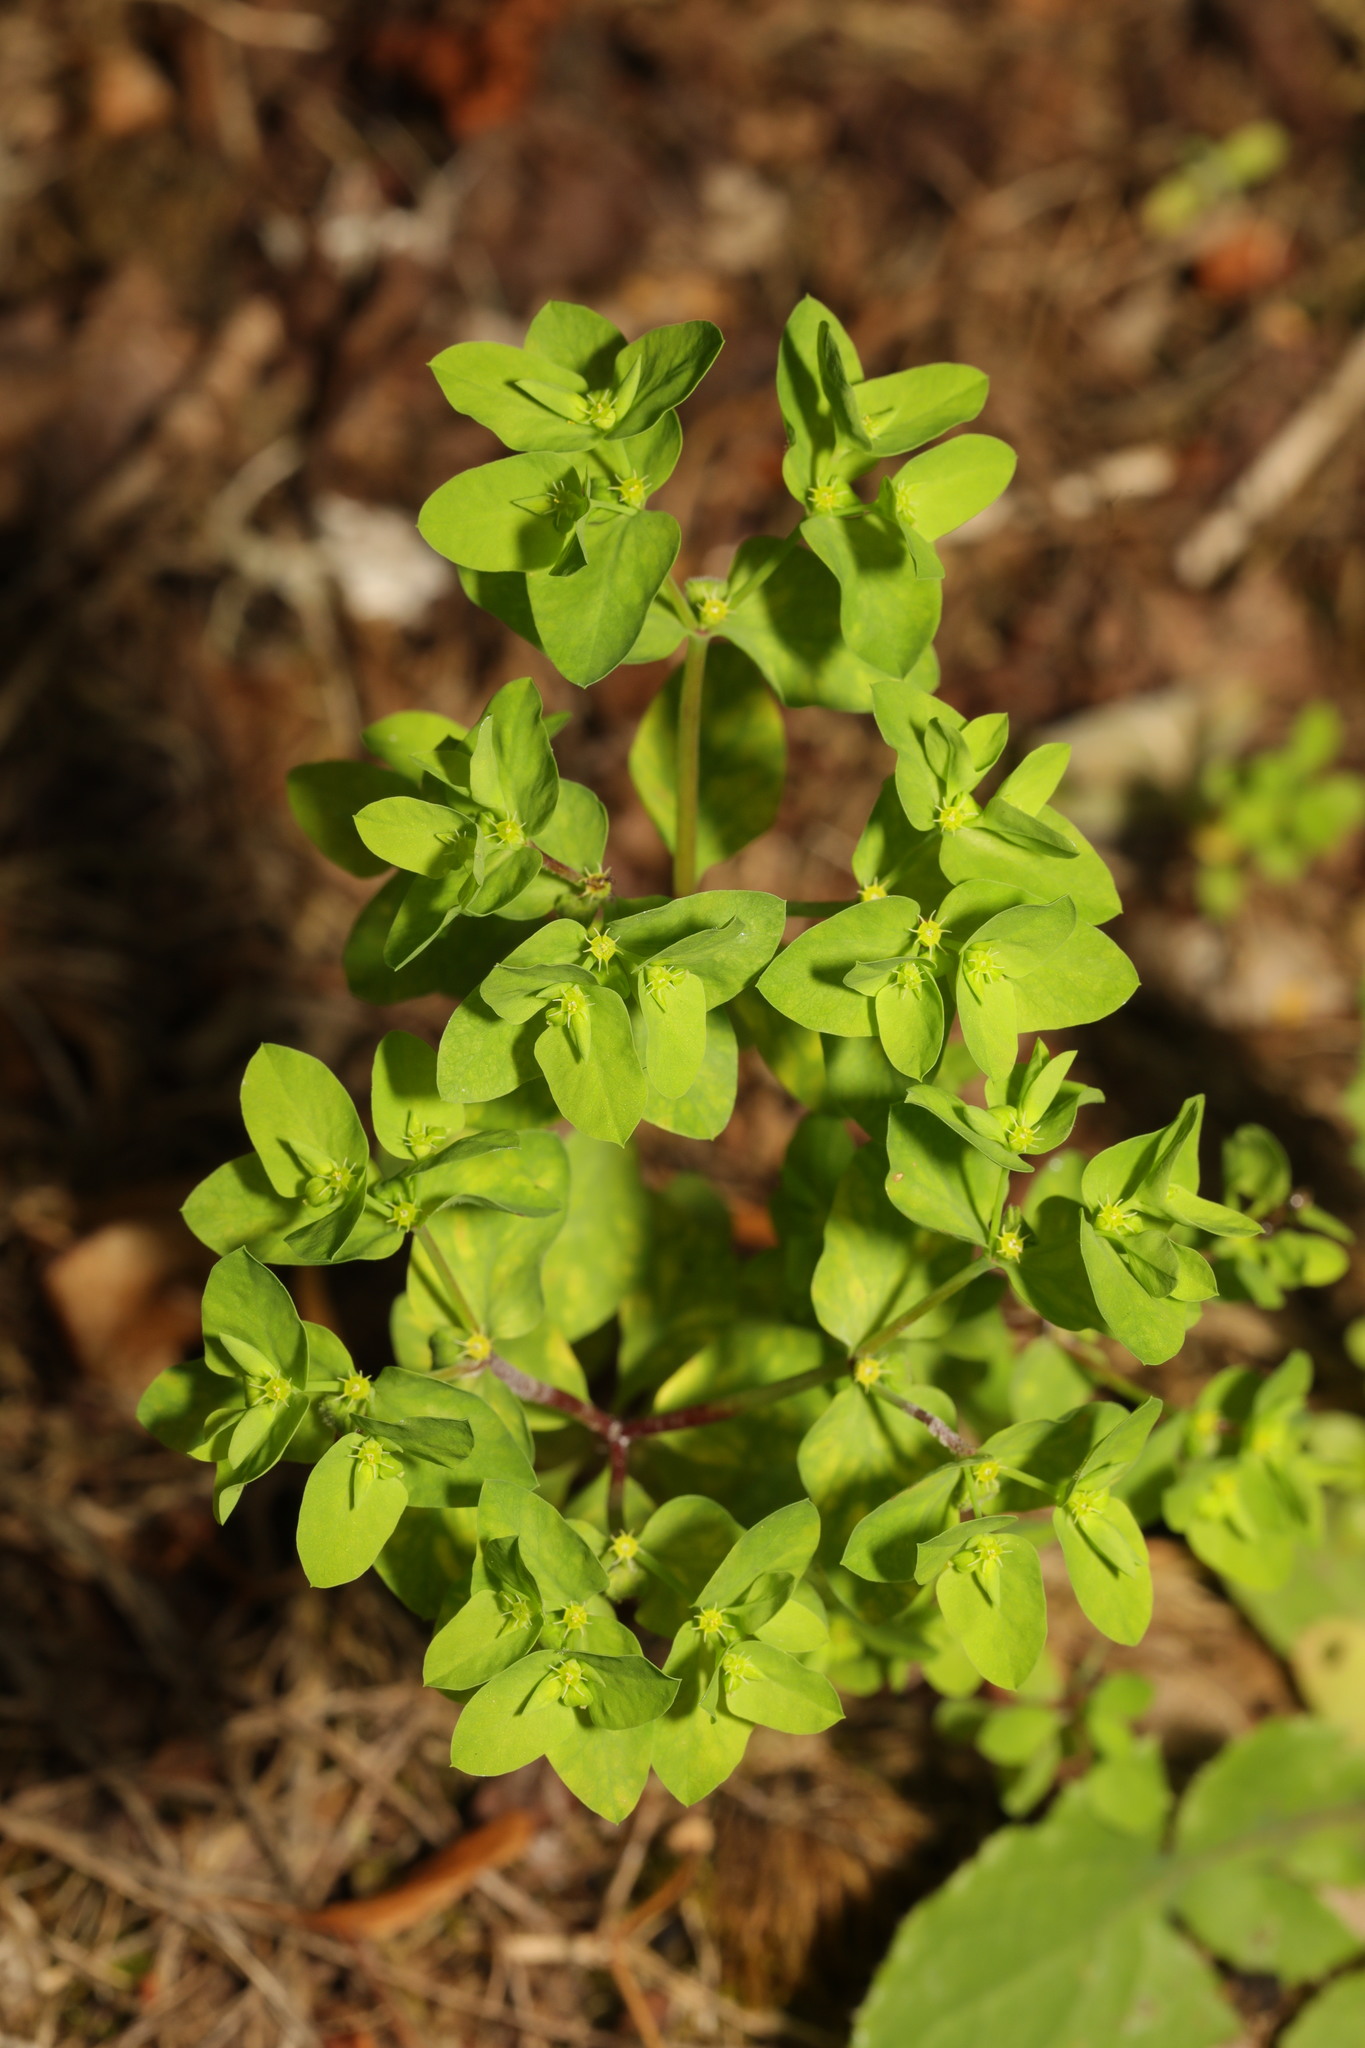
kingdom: Plantae
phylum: Tracheophyta
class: Magnoliopsida
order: Malpighiales
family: Euphorbiaceae
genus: Euphorbia
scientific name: Euphorbia peplus
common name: Petty spurge
